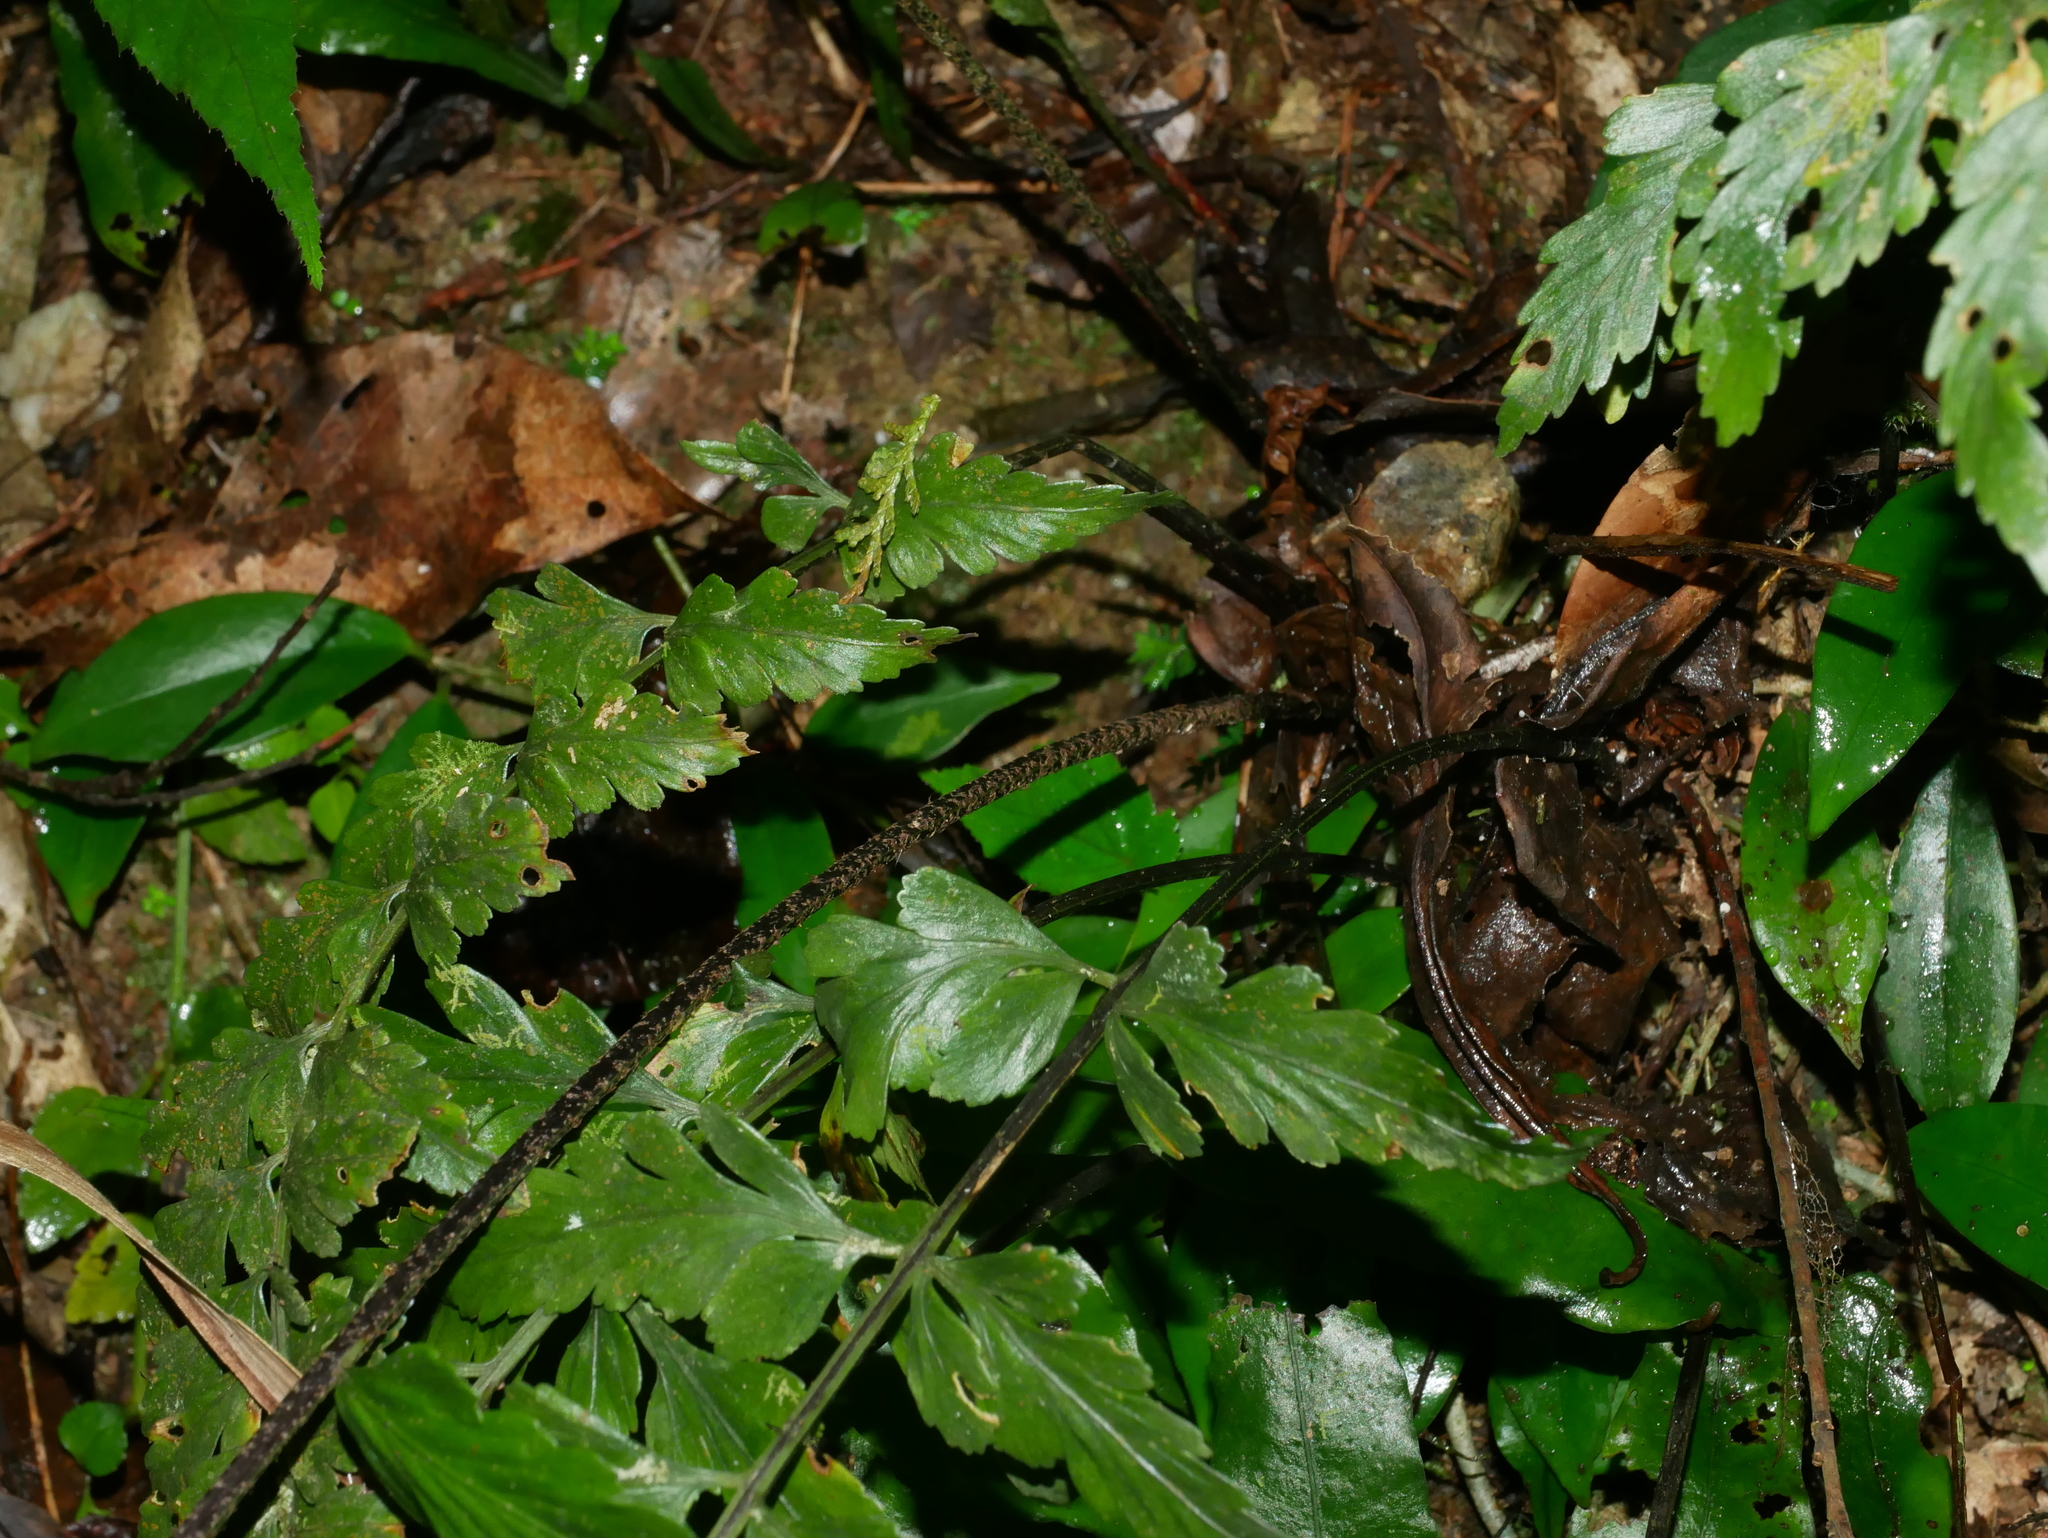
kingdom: Plantae
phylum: Tracheophyta
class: Polypodiopsida
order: Polypodiales
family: Aspleniaceae
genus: Asplenium
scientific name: Asplenium cuneatiforme
